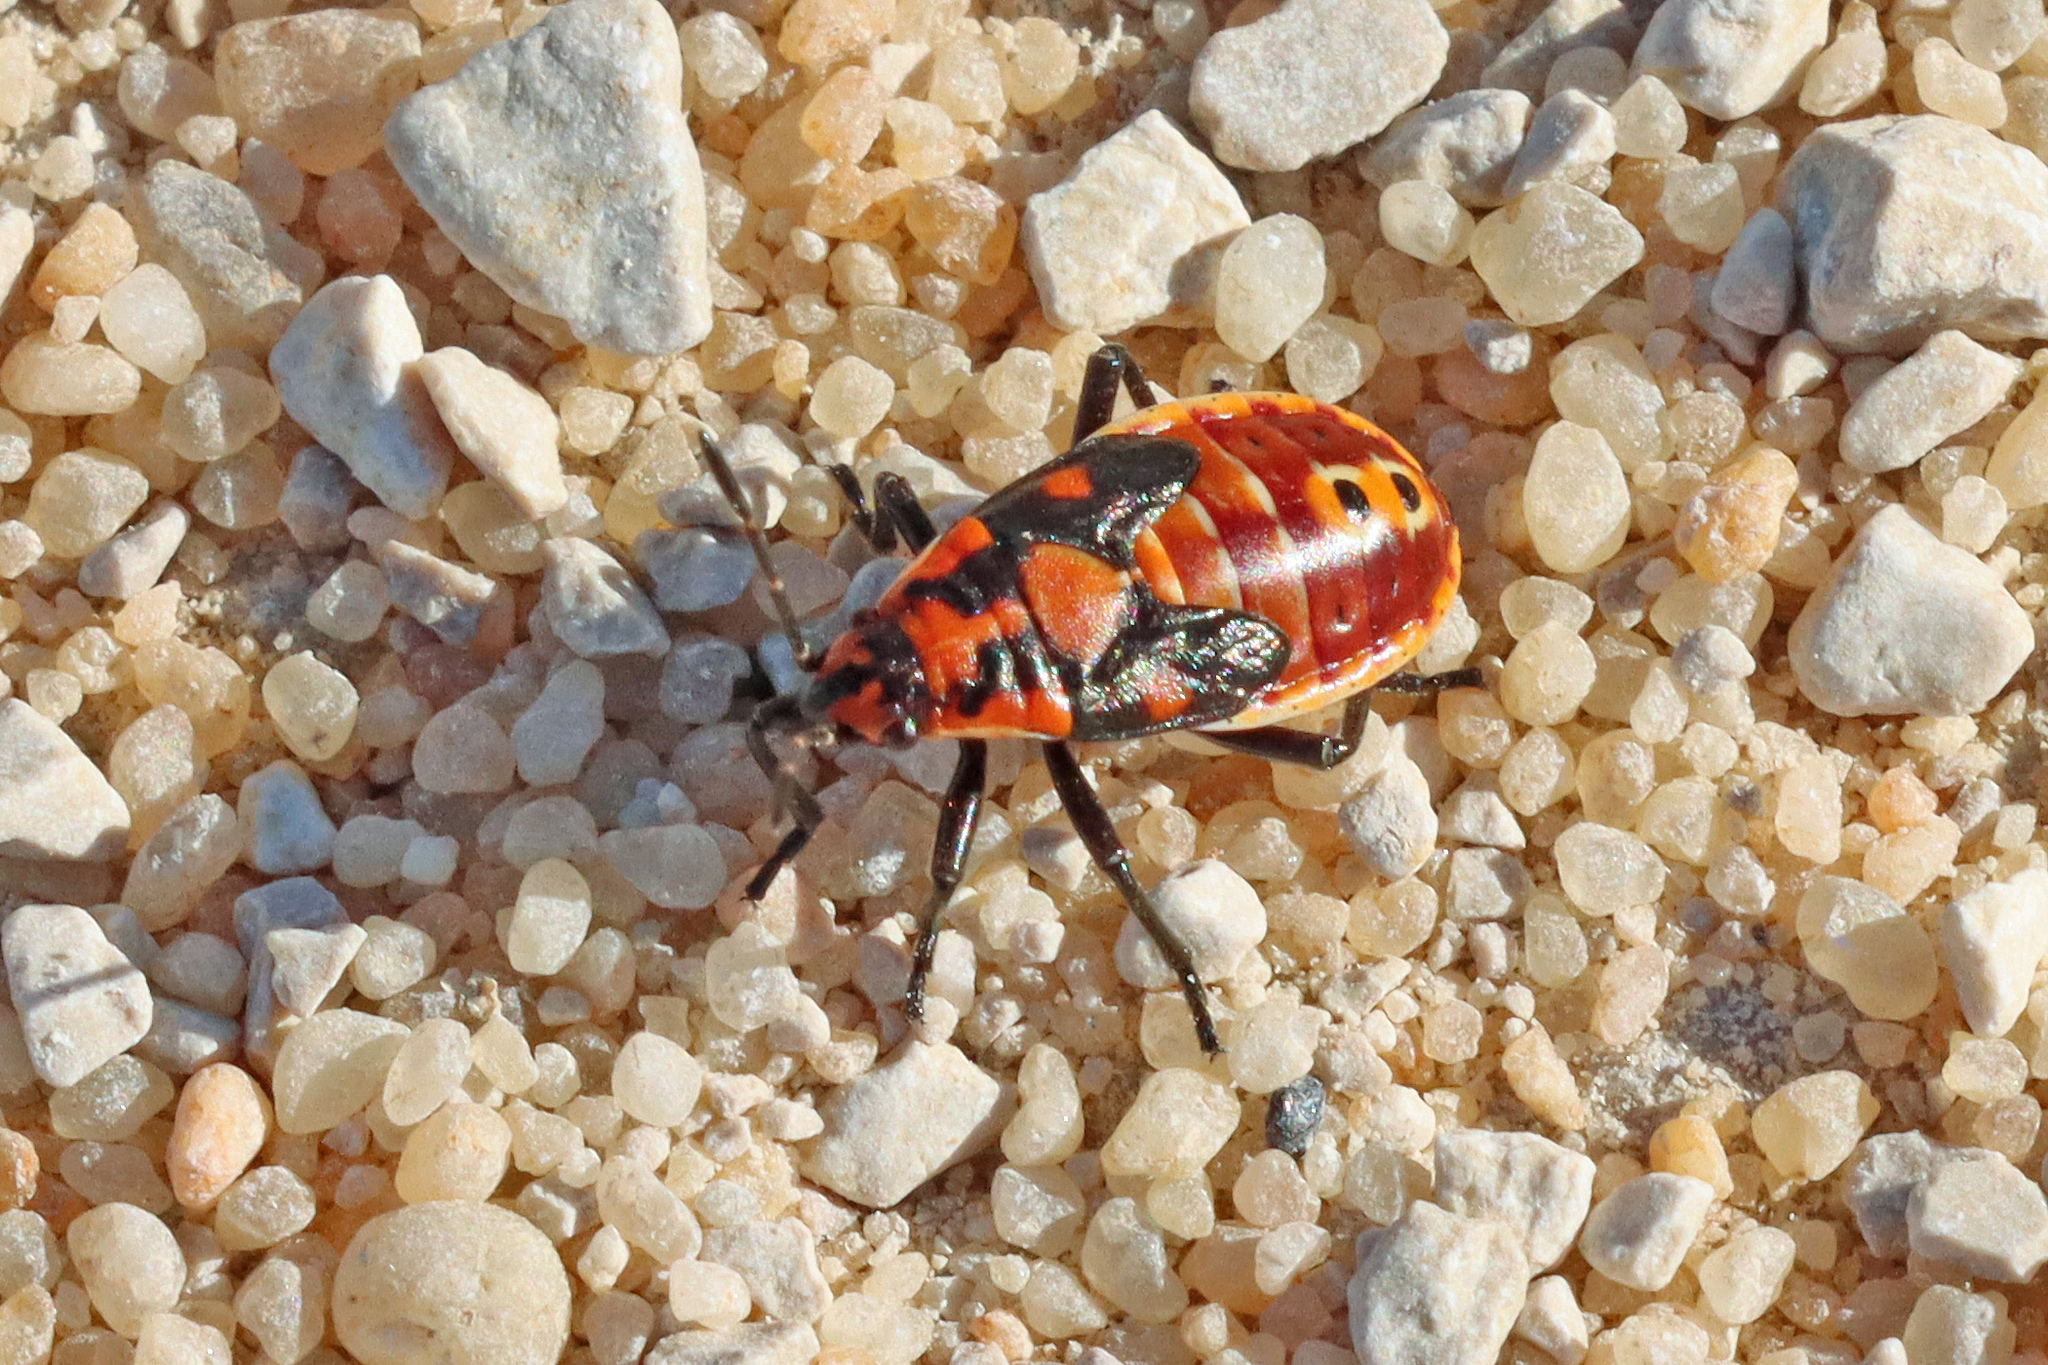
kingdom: Animalia
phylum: Arthropoda
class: Insecta
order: Hemiptera
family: Lygaeidae
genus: Spilostethus
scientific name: Spilostethus pandurus
